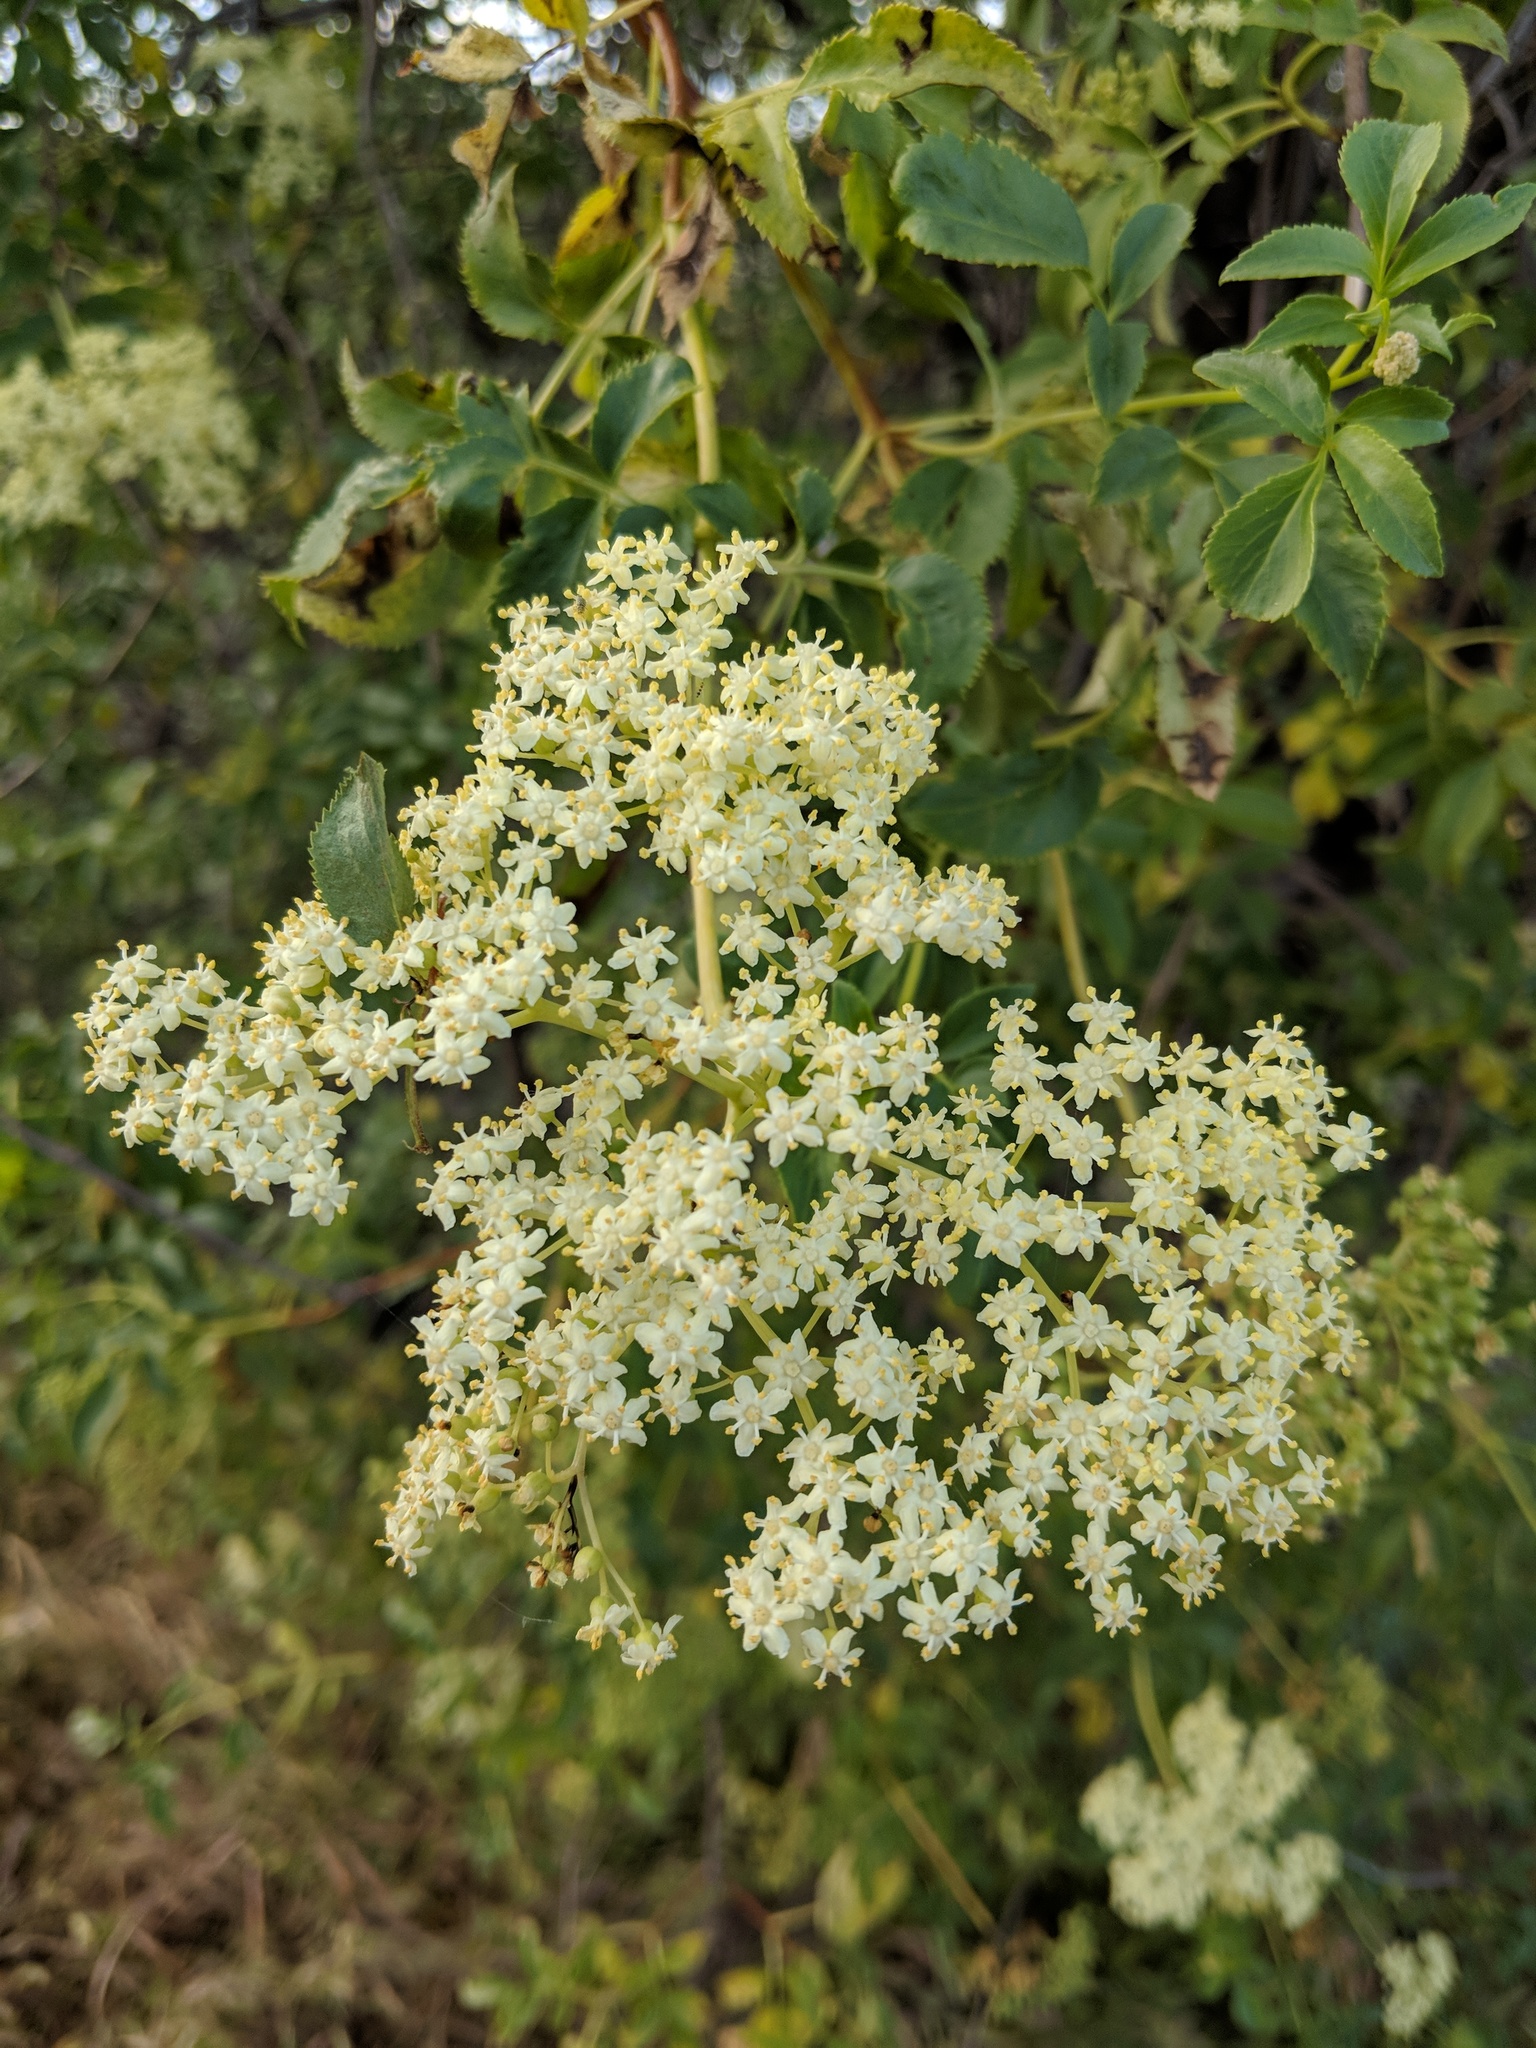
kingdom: Plantae
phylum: Tracheophyta
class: Magnoliopsida
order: Dipsacales
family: Viburnaceae
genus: Sambucus
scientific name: Sambucus cerulea
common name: Blue elder
